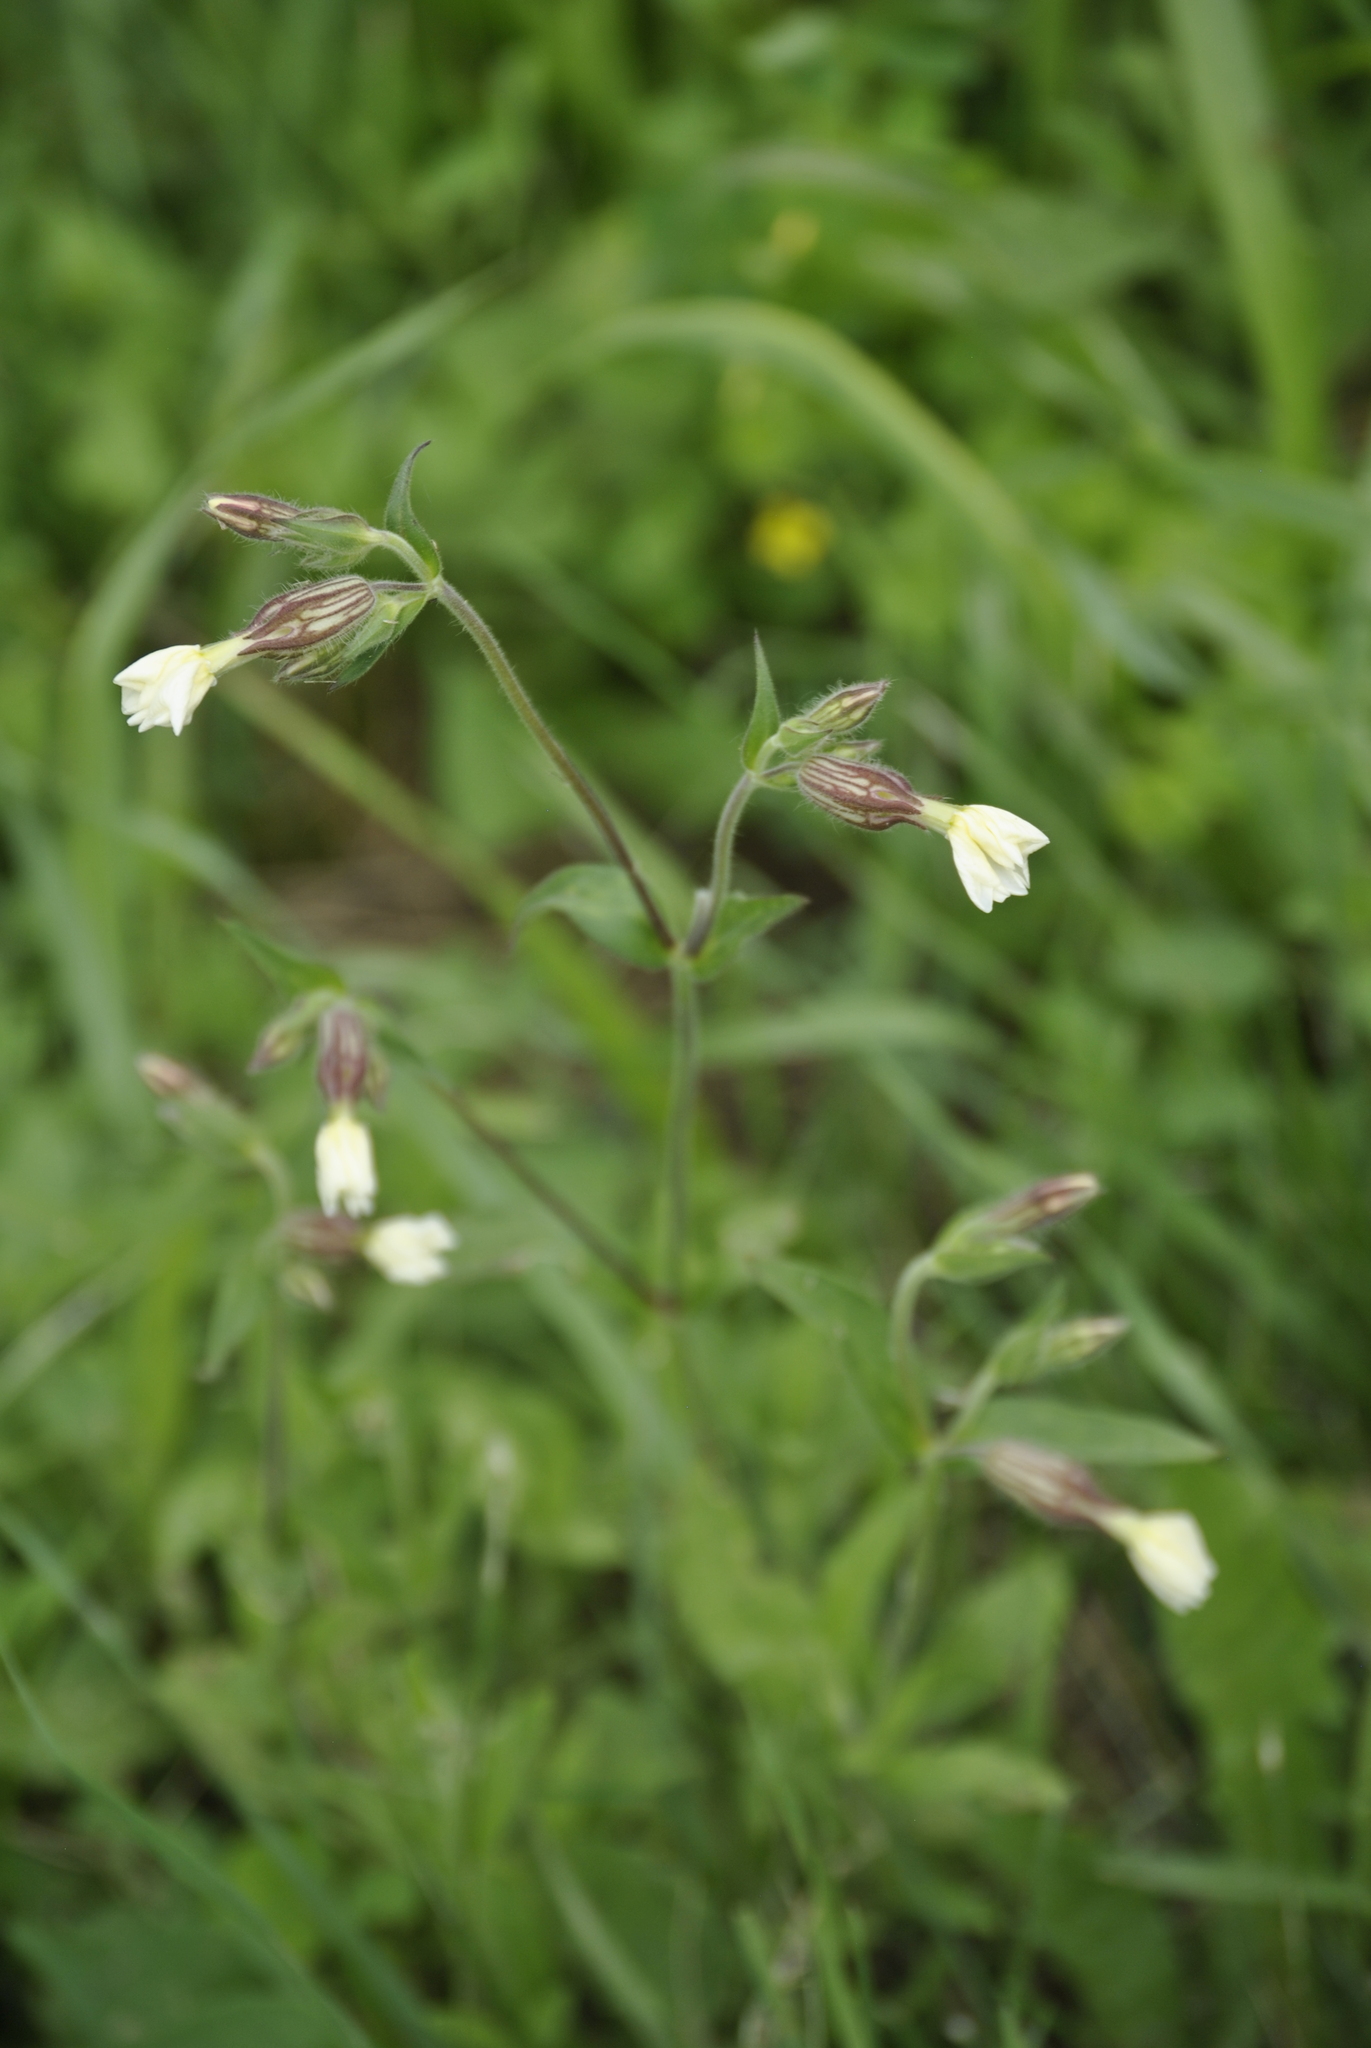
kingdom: Plantae
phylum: Tracheophyta
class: Magnoliopsida
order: Caryophyllales
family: Caryophyllaceae
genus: Silene
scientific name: Silene latifolia
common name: White campion
